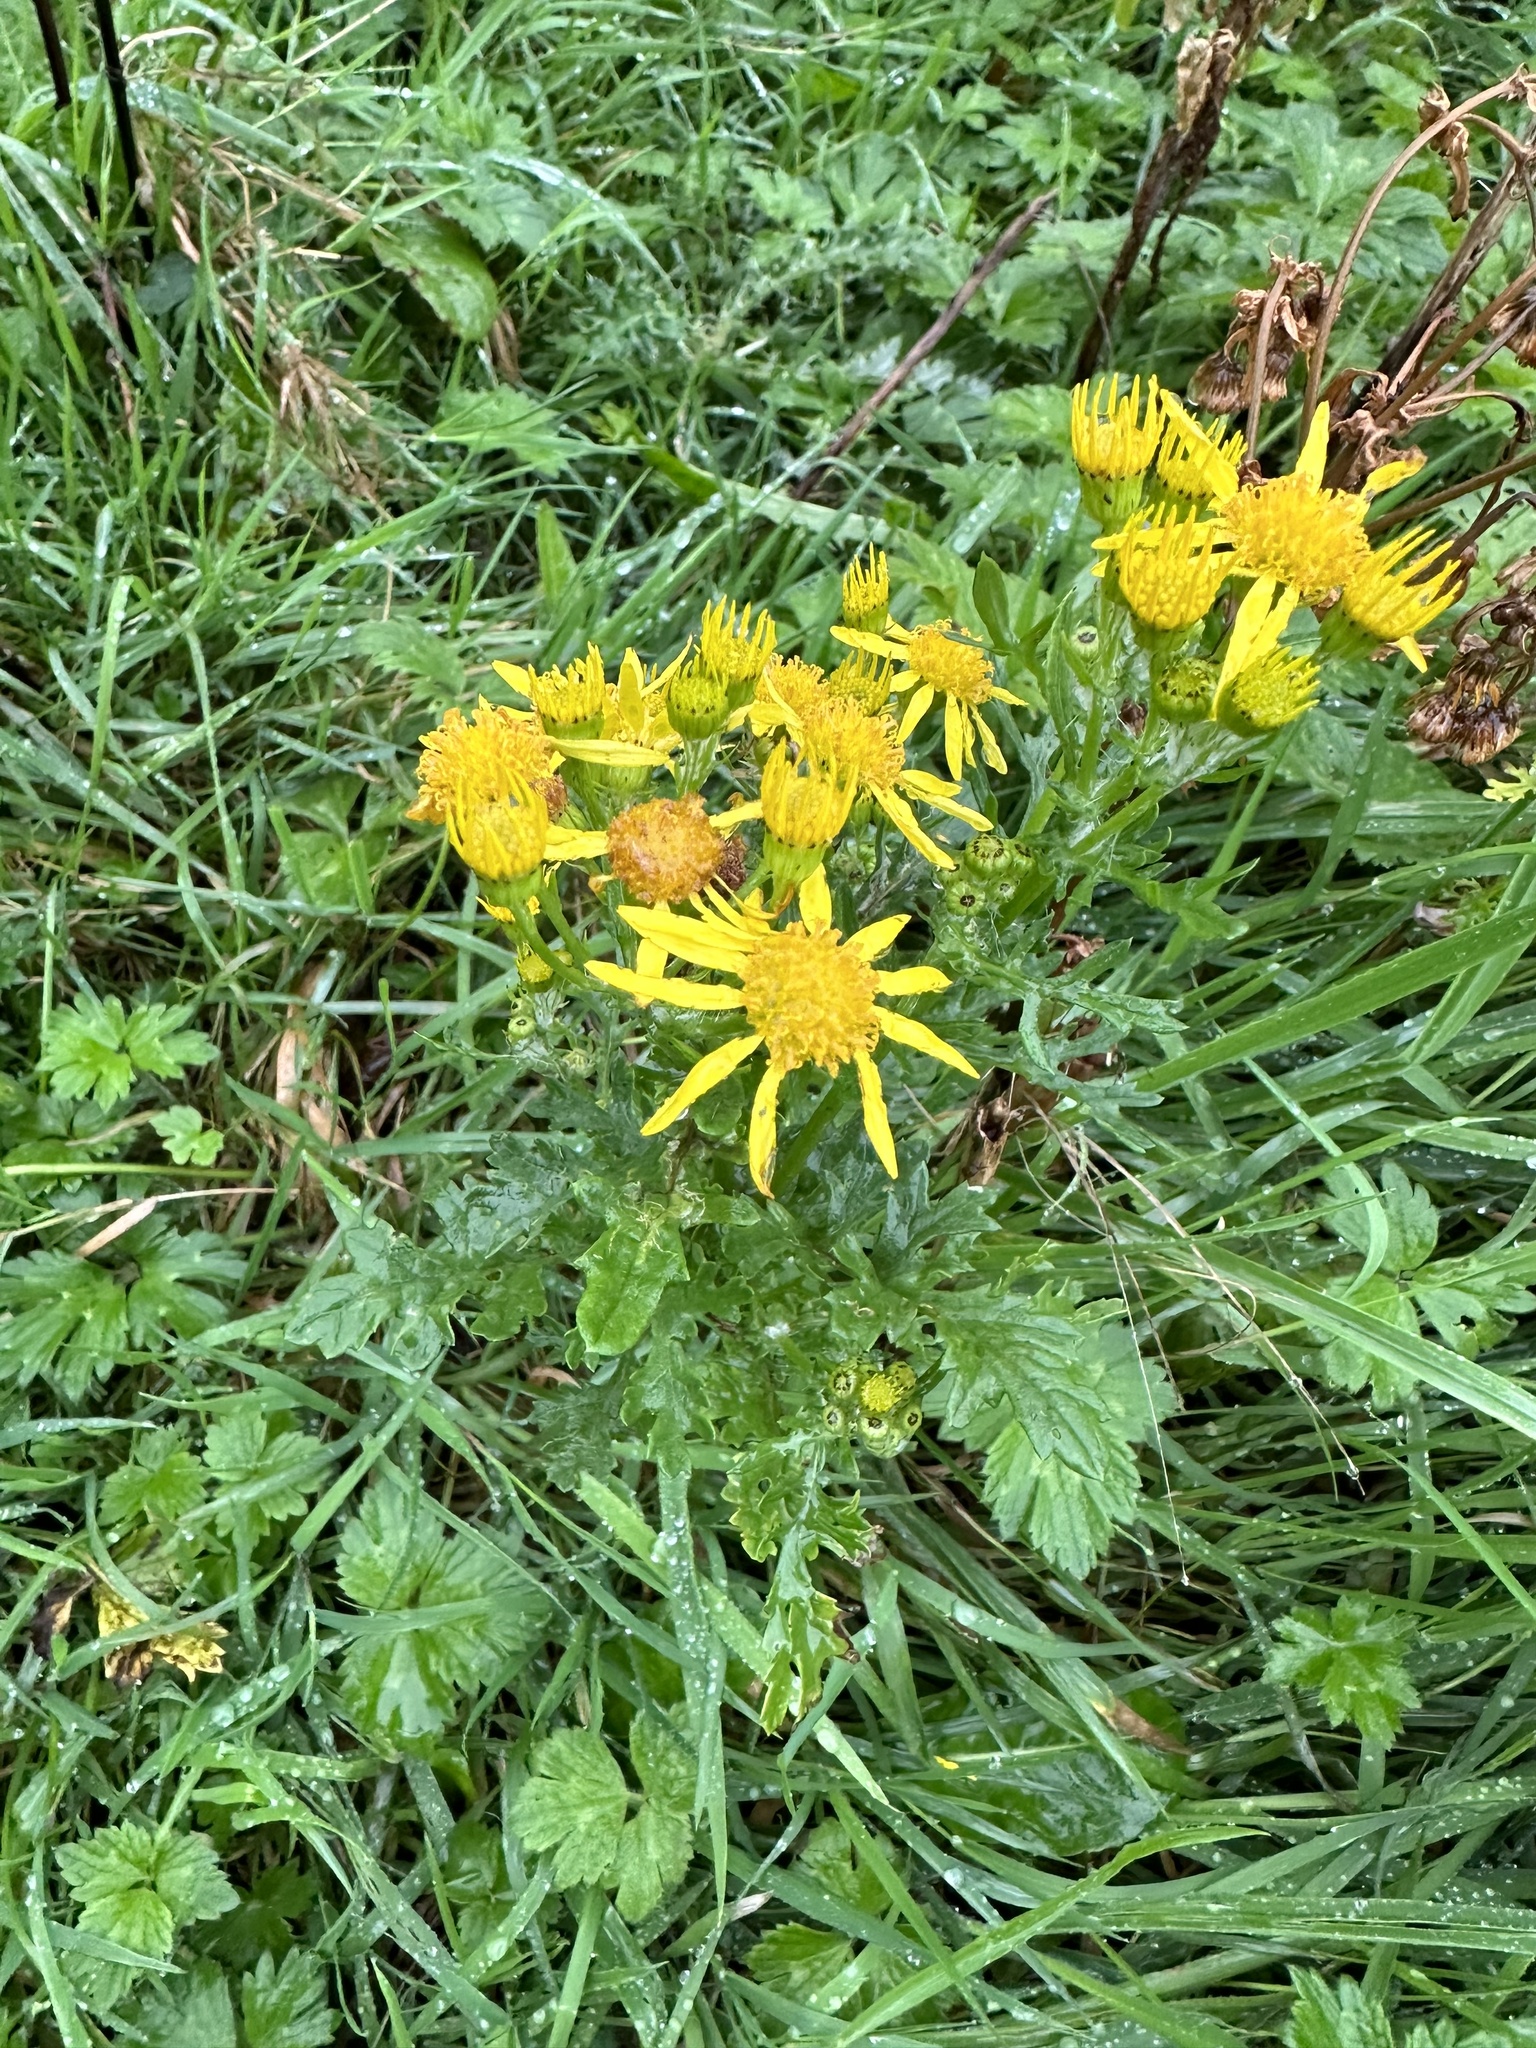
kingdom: Plantae
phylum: Tracheophyta
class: Magnoliopsida
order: Asterales
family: Asteraceae
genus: Jacobaea
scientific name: Jacobaea vulgaris
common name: Stinking willie
